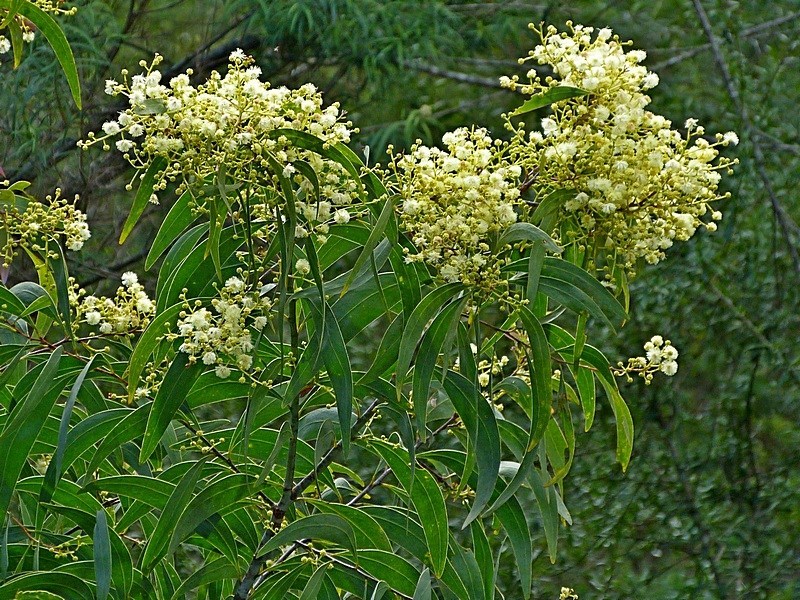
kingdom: Plantae
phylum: Tracheophyta
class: Magnoliopsida
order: Fabales
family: Fabaceae
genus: Acacia
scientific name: Acacia falciformis
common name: Tanning wattle
